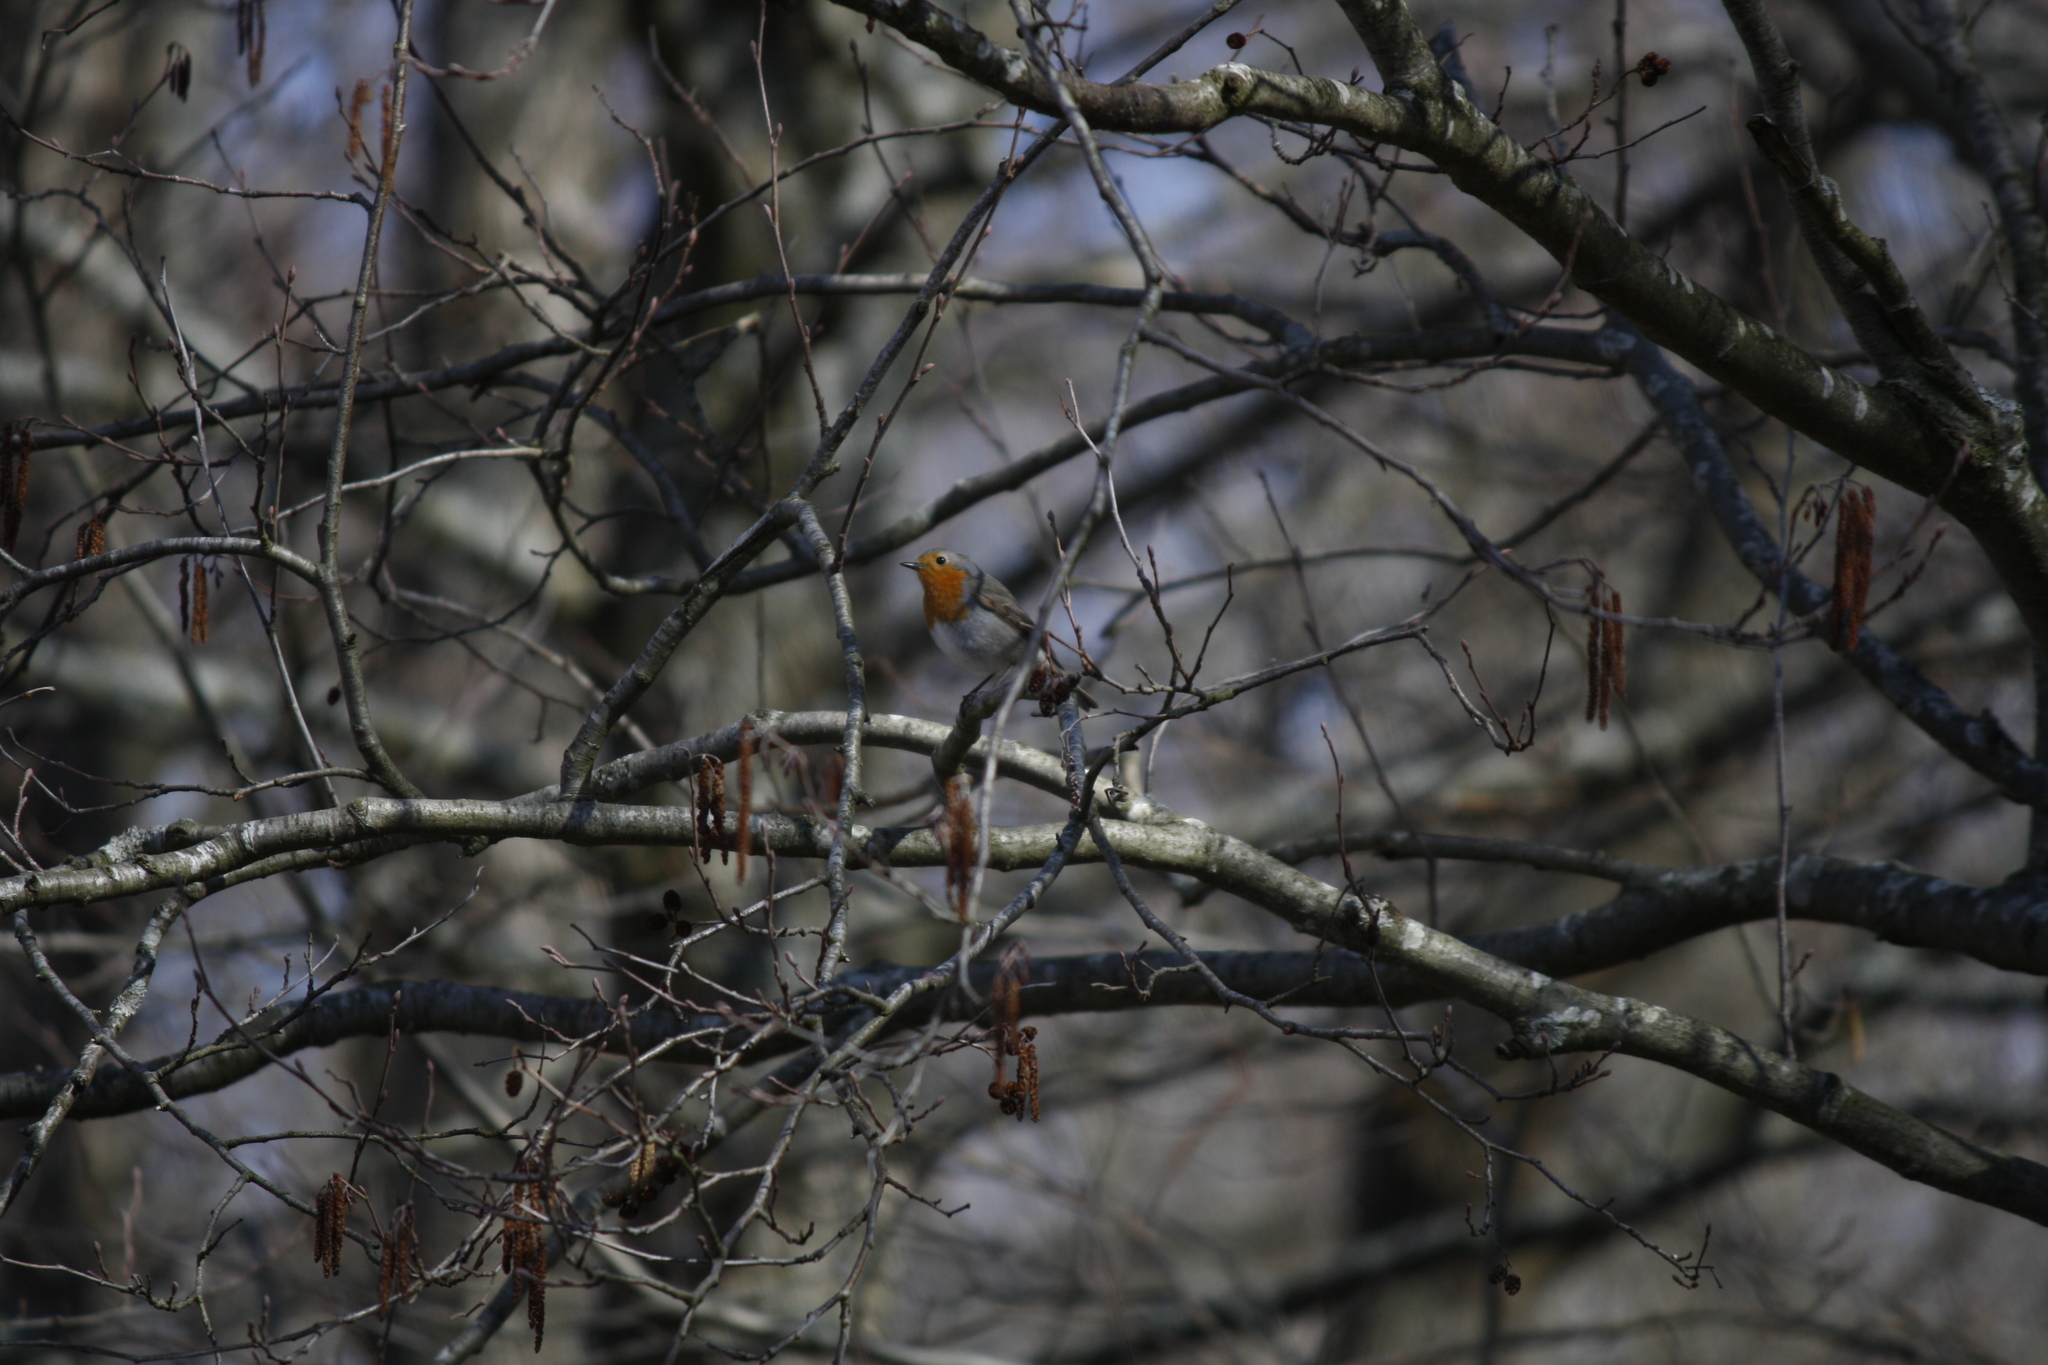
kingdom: Animalia
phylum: Chordata
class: Aves
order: Passeriformes
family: Muscicapidae
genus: Erithacus
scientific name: Erithacus rubecula
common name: European robin
